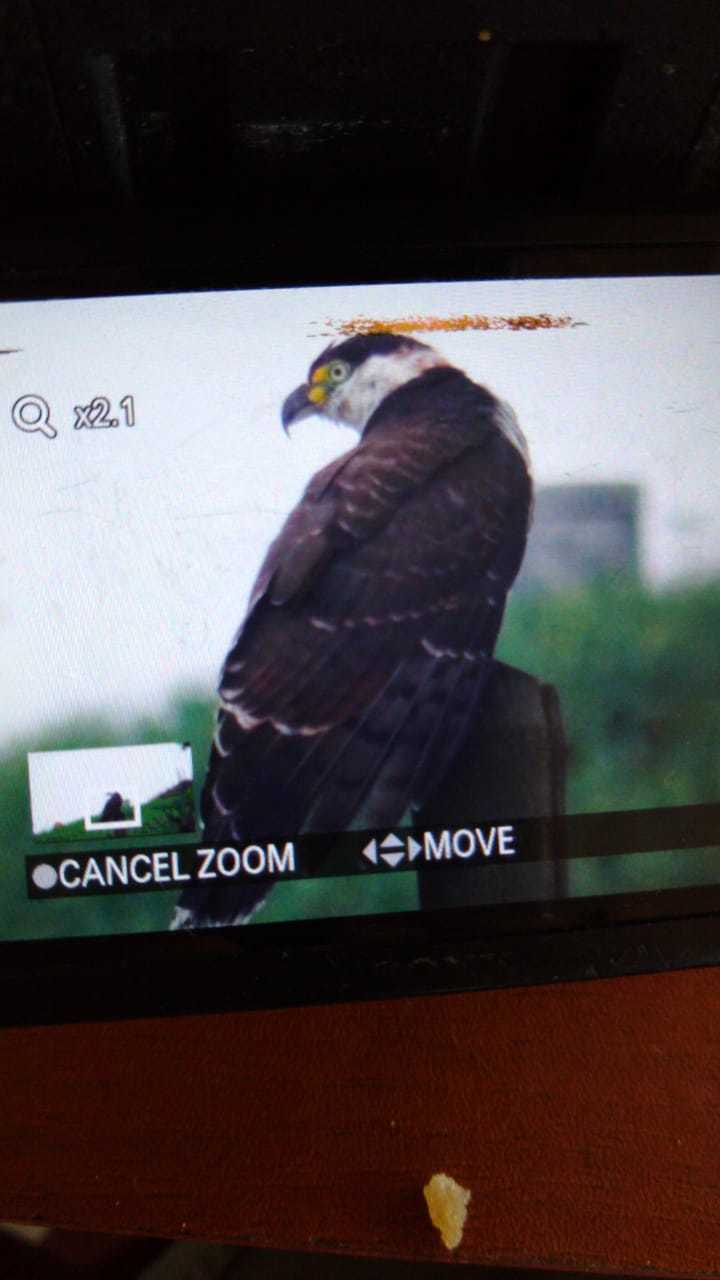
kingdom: Animalia
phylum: Chordata
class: Aves
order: Accipitriformes
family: Accipitridae
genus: Chondrohierax
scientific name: Chondrohierax uncinatus
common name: Hook-billed kite
